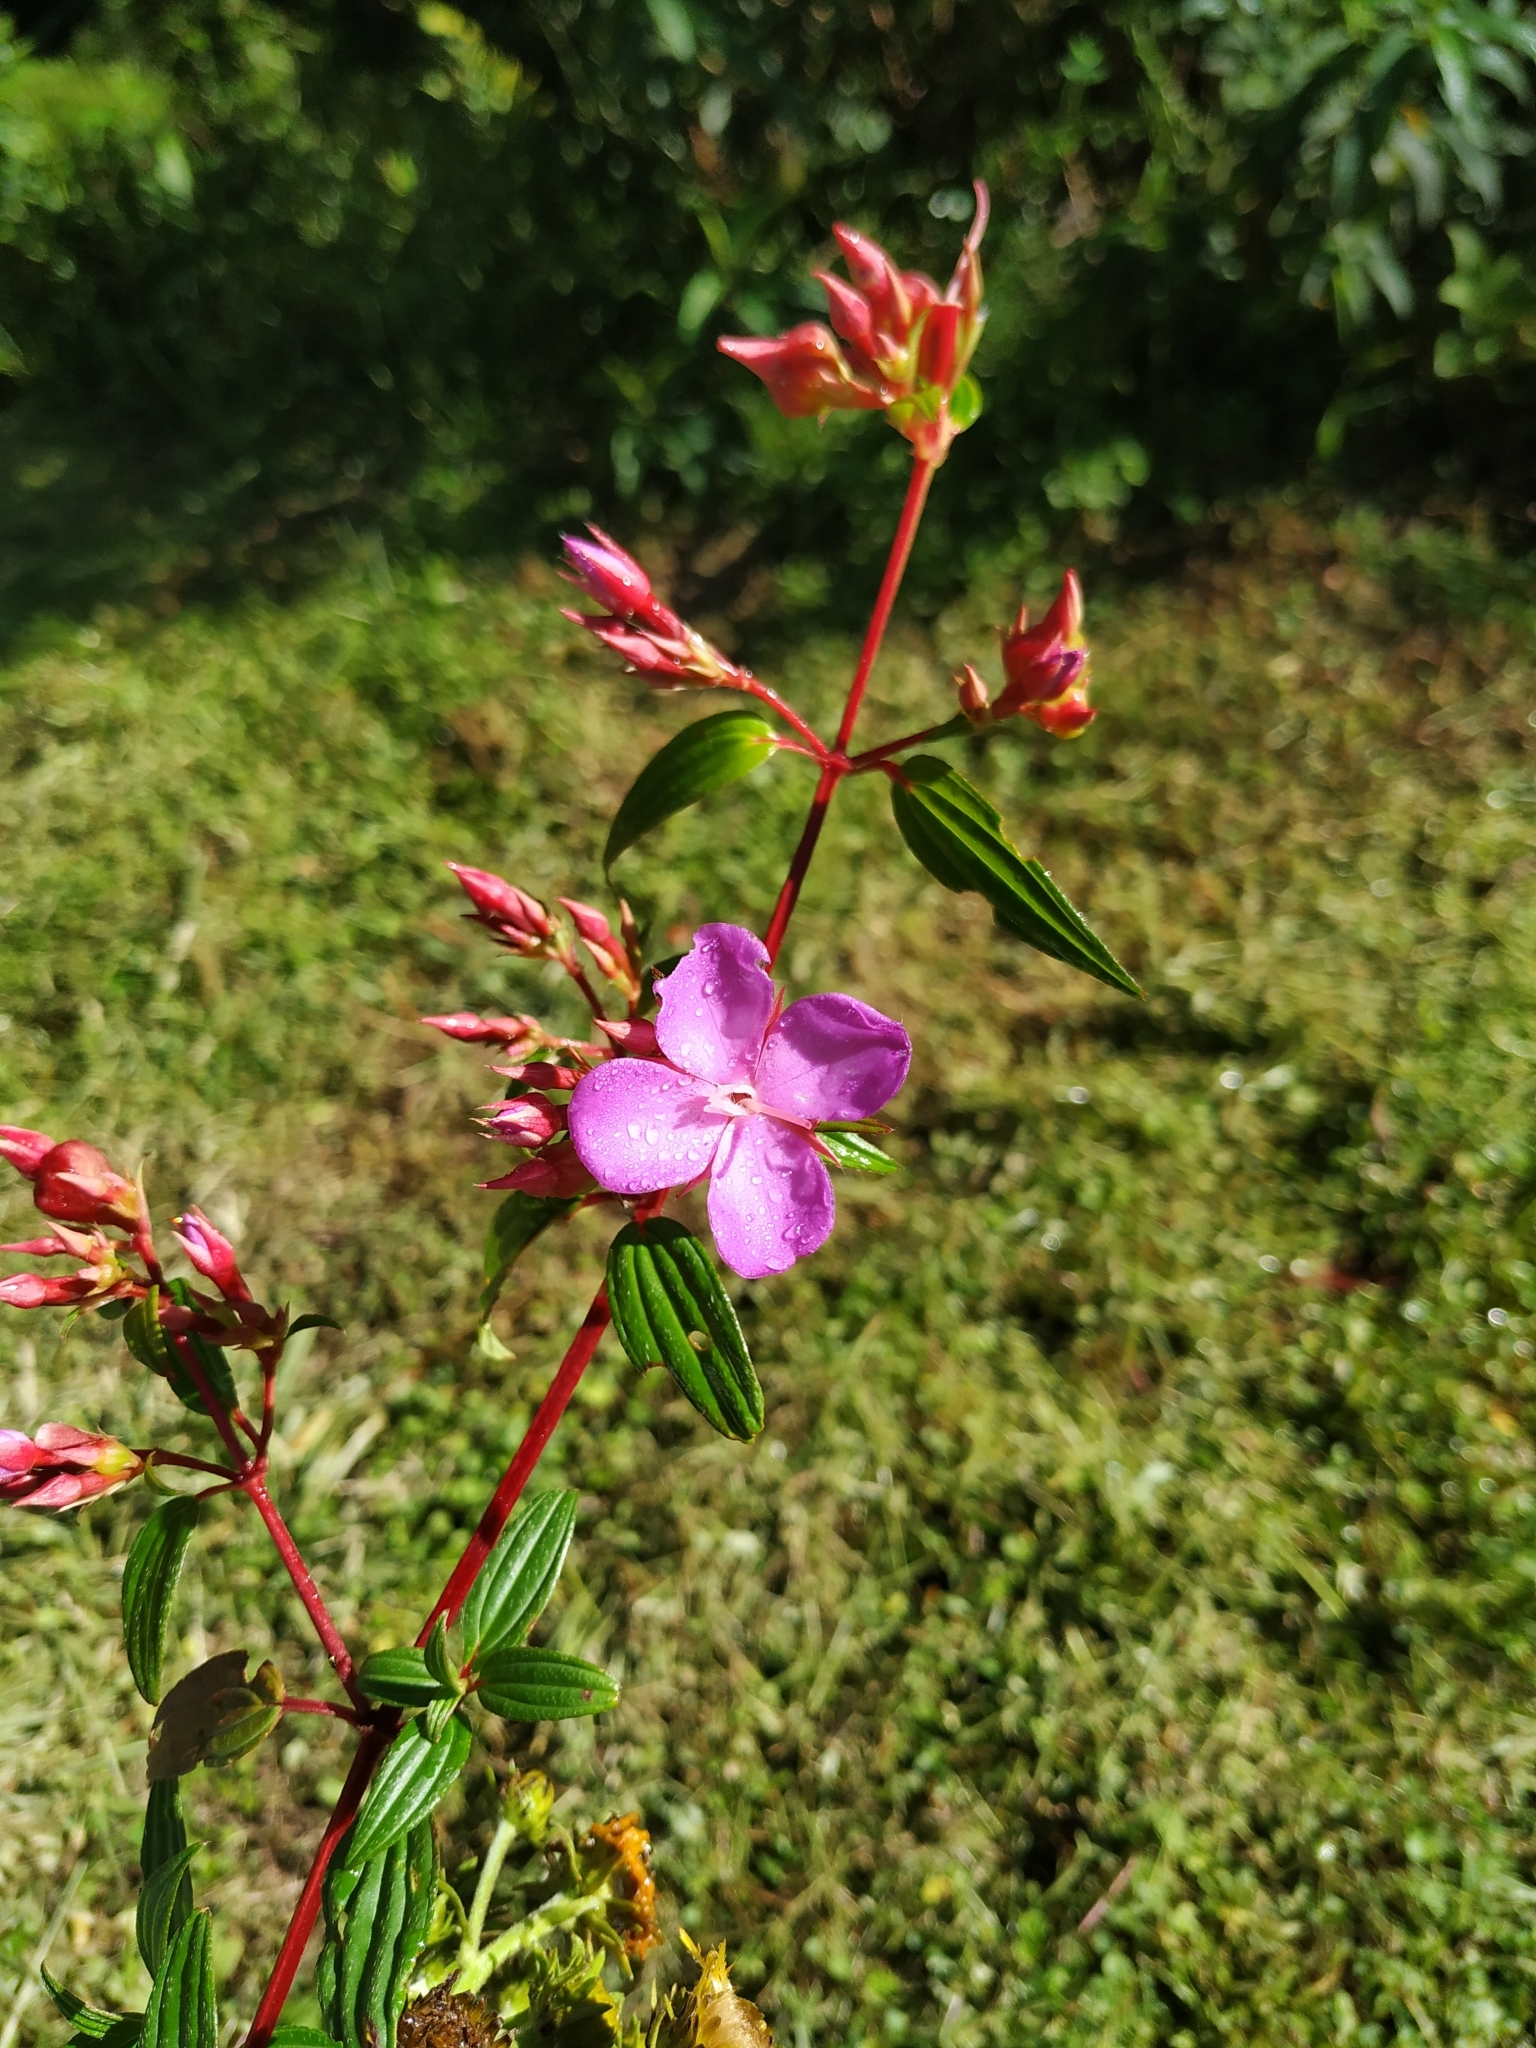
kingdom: Plantae
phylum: Tracheophyta
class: Magnoliopsida
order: Myrtales
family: Melastomataceae
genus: Monochaetum
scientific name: Monochaetum lineatum
